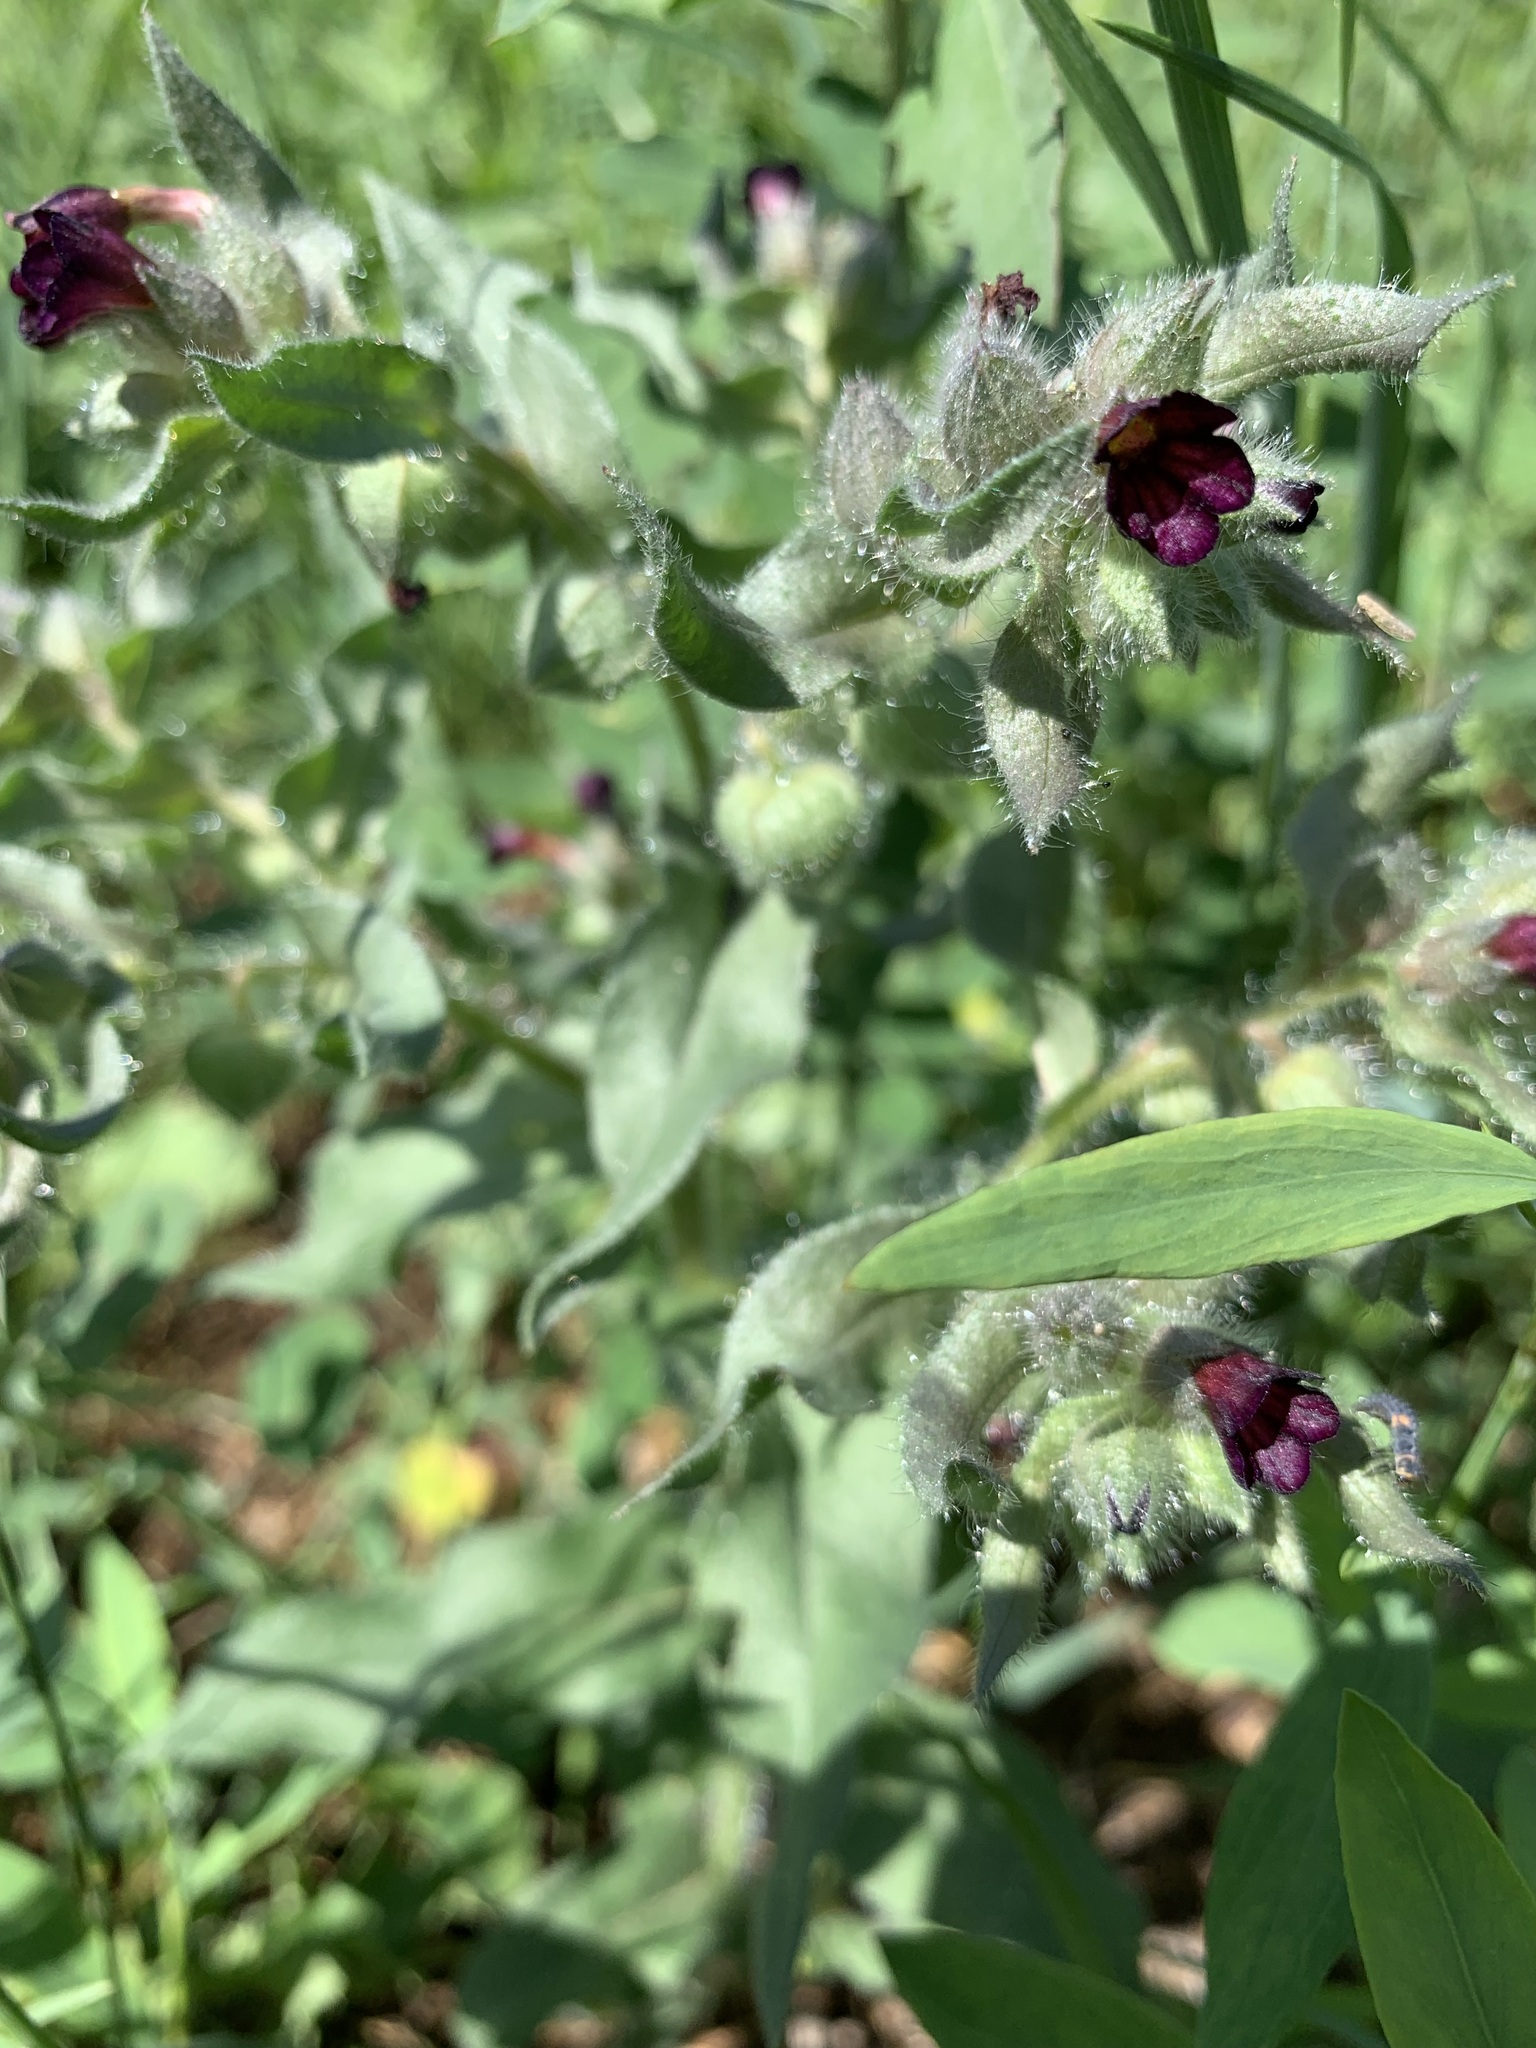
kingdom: Plantae
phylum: Tracheophyta
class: Magnoliopsida
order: Boraginales
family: Boraginaceae
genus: Nonea
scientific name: Nonea pulla
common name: Brown nonea
